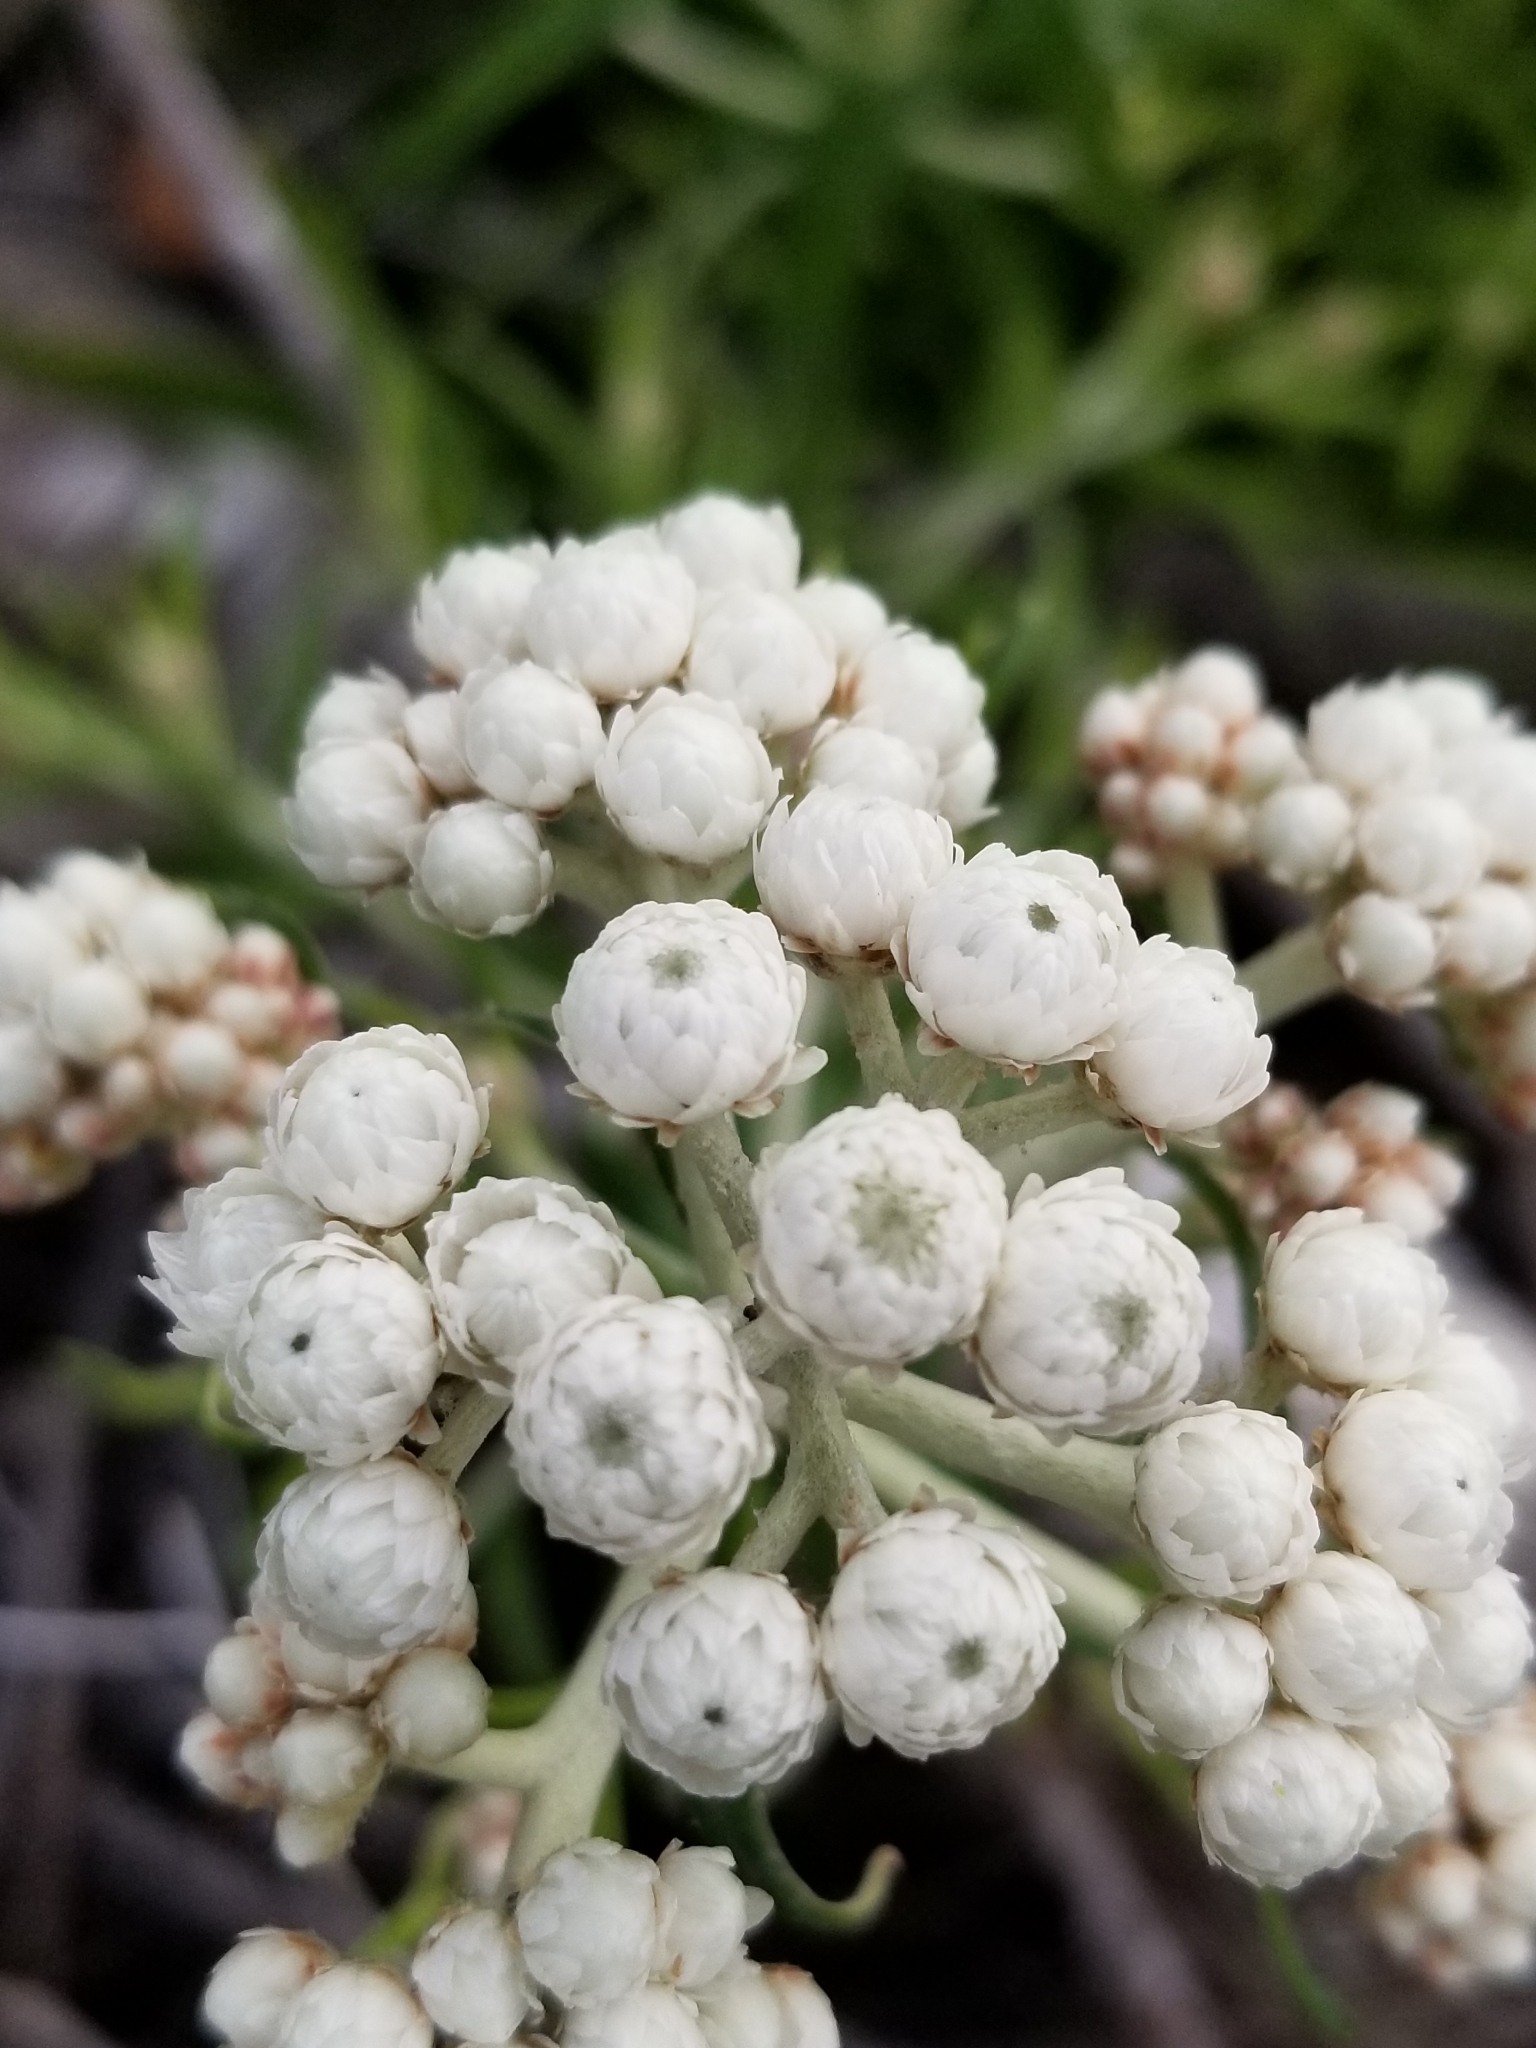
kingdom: Plantae
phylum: Tracheophyta
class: Magnoliopsida
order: Asterales
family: Asteraceae
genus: Anaphalis
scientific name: Anaphalis margaritacea
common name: Pearly everlasting
